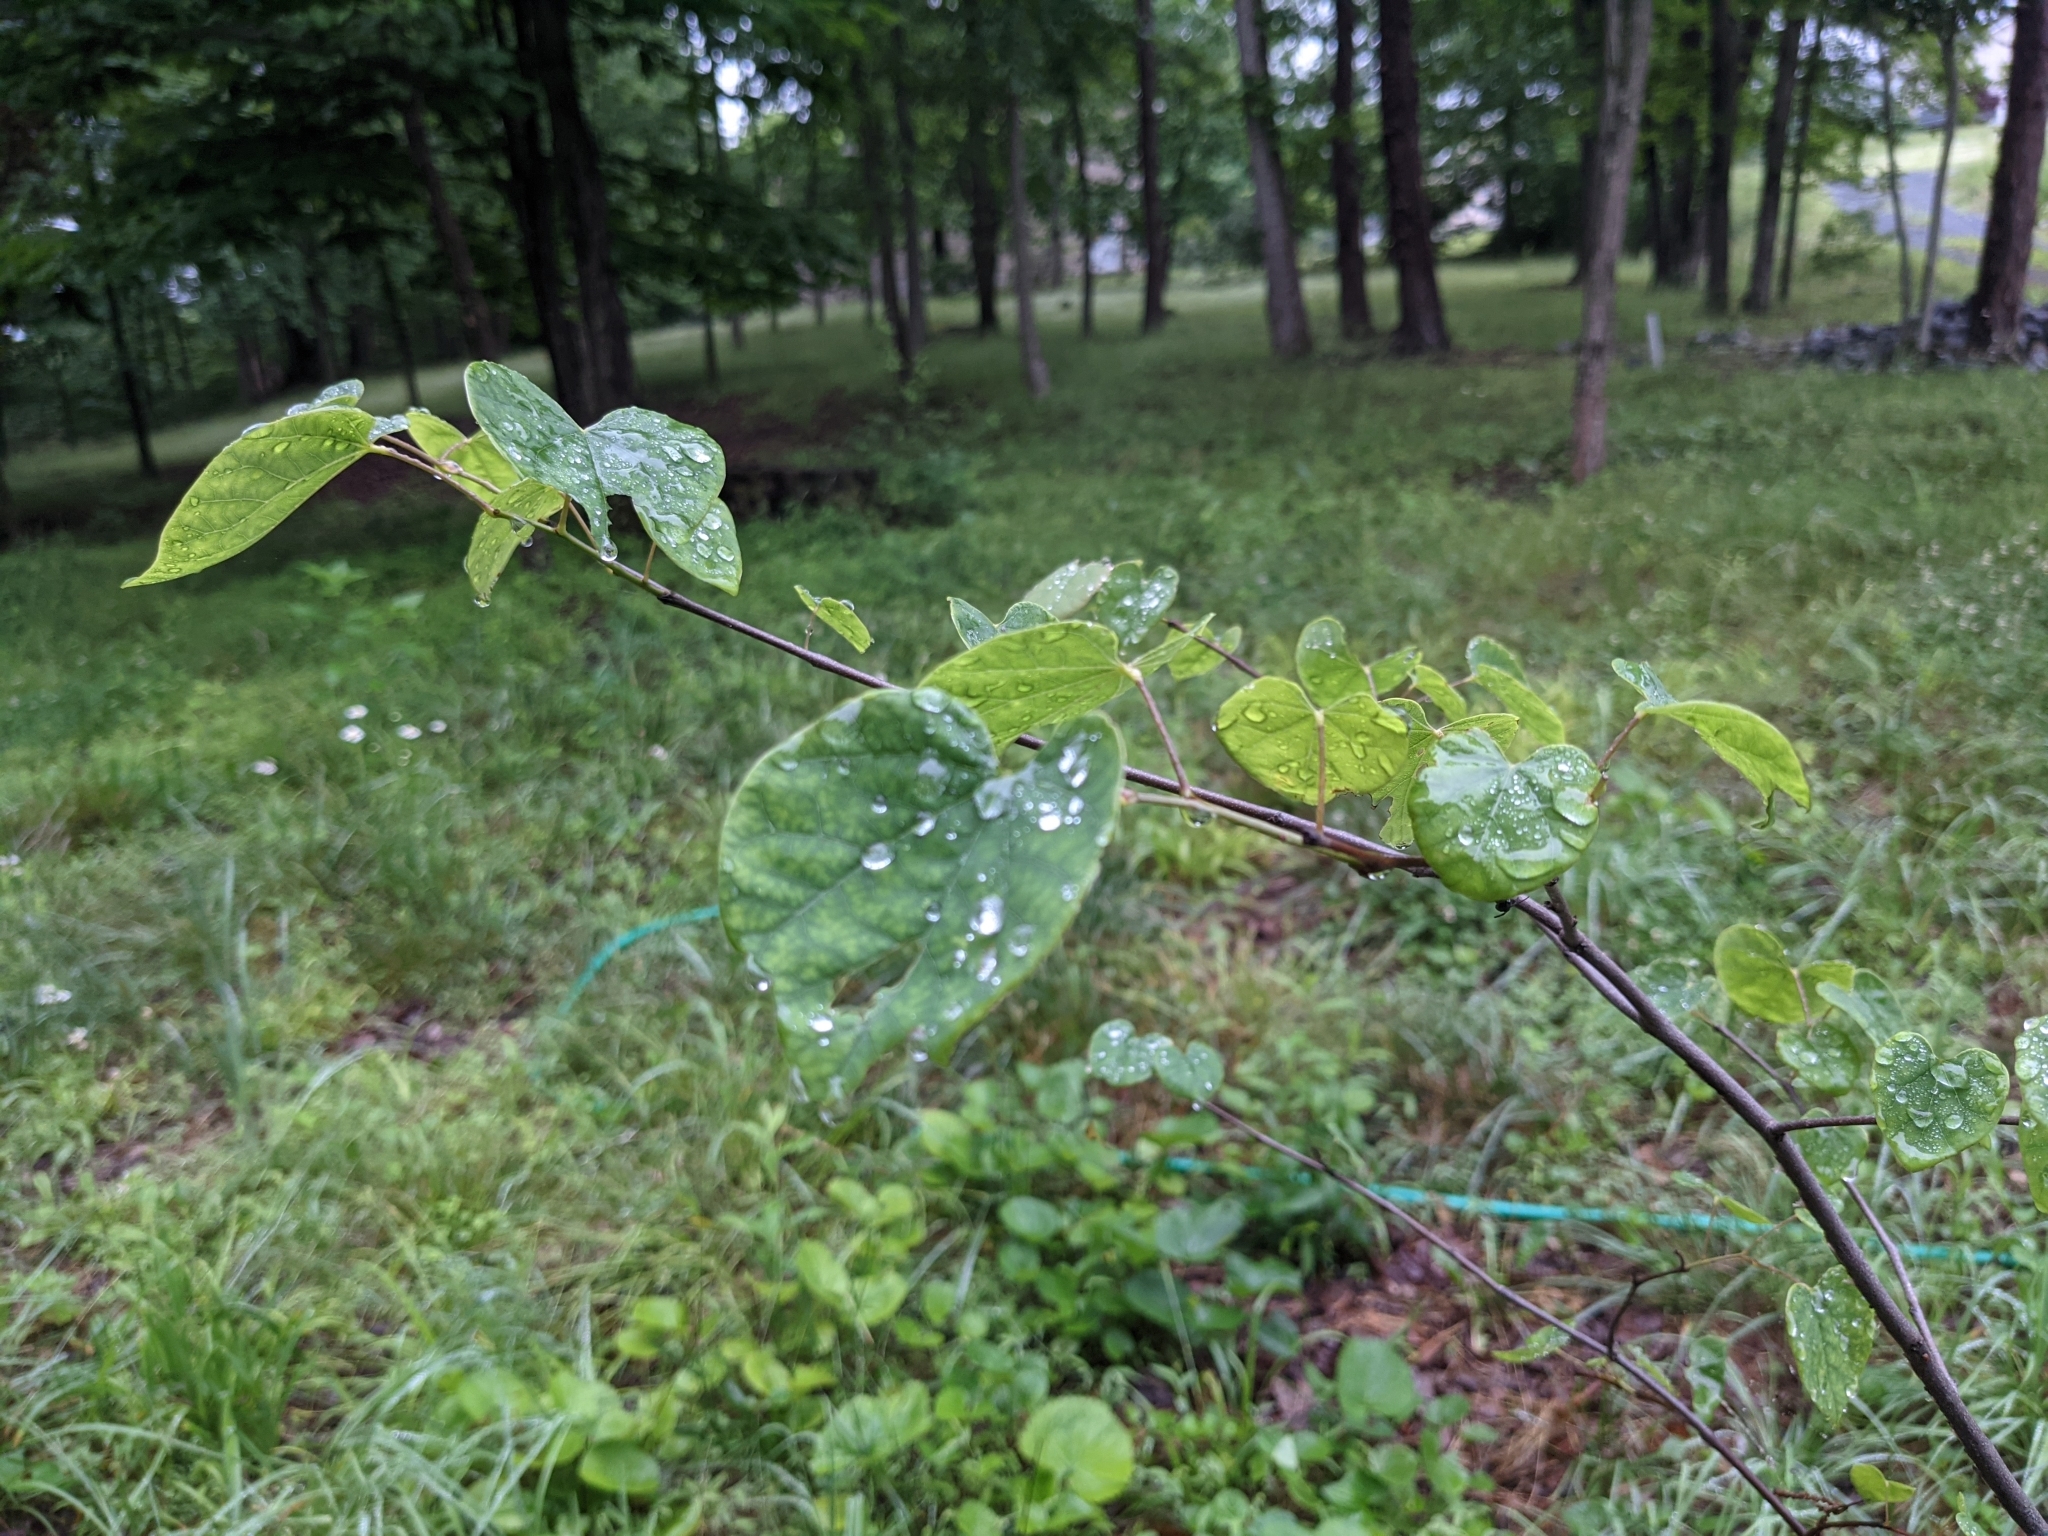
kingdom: Plantae
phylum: Tracheophyta
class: Magnoliopsida
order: Fabales
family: Fabaceae
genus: Cercis
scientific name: Cercis canadensis
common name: Eastern redbud
